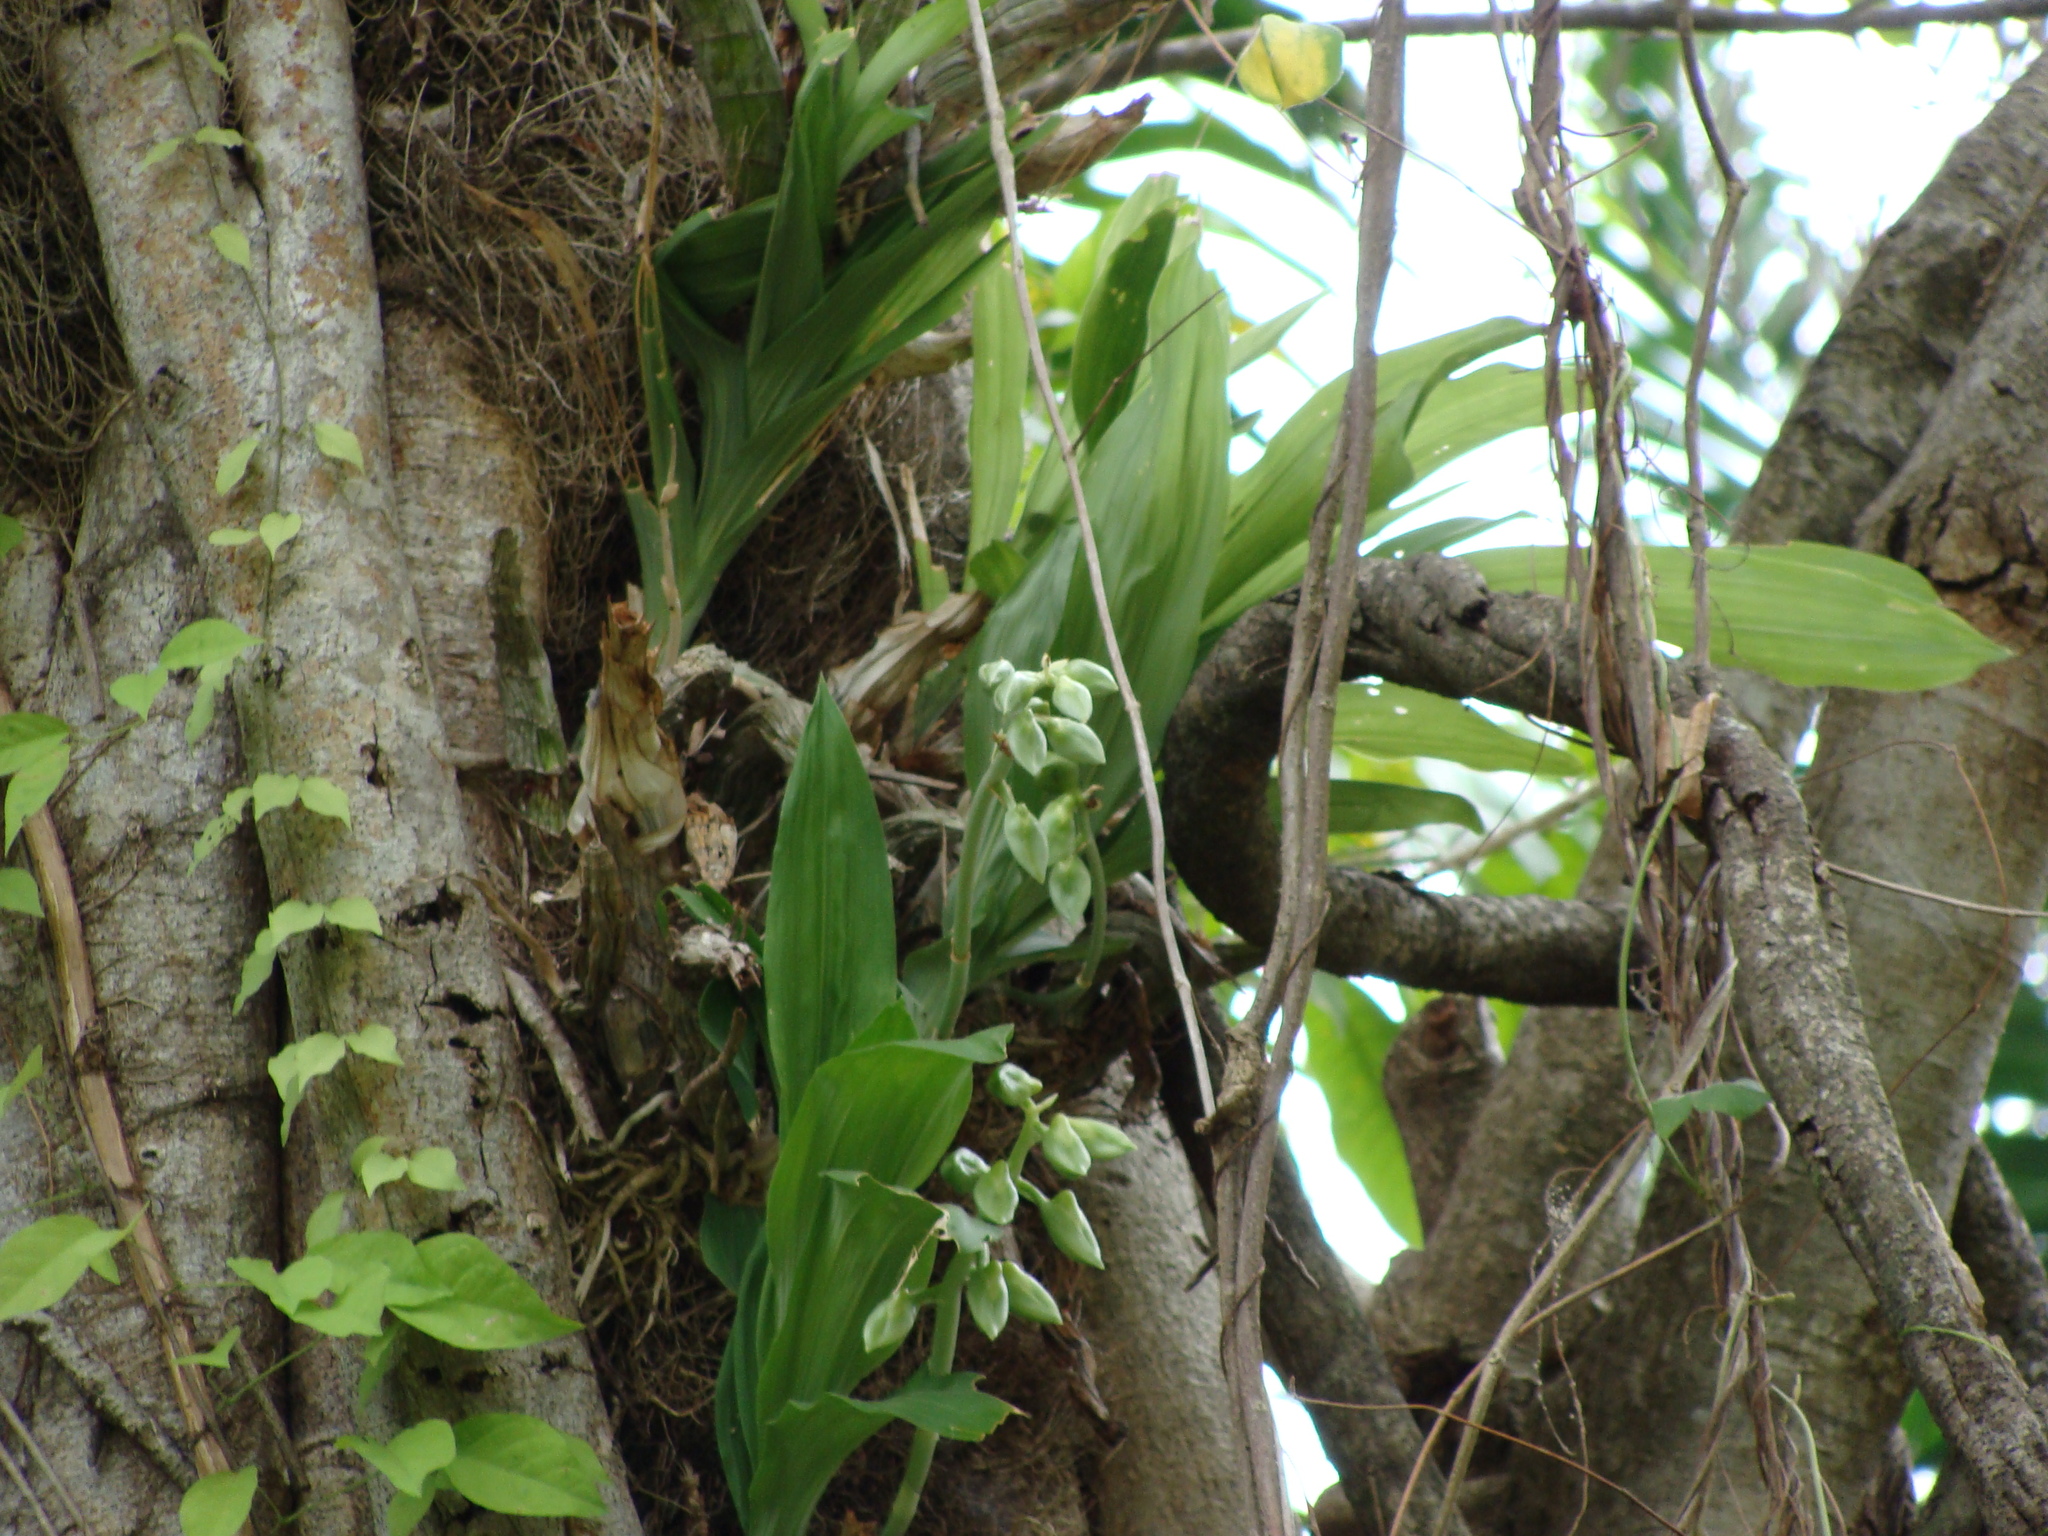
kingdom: Plantae
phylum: Tracheophyta
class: Liliopsida
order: Asparagales
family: Orchidaceae
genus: Catasetum
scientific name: Catasetum integerrimum
